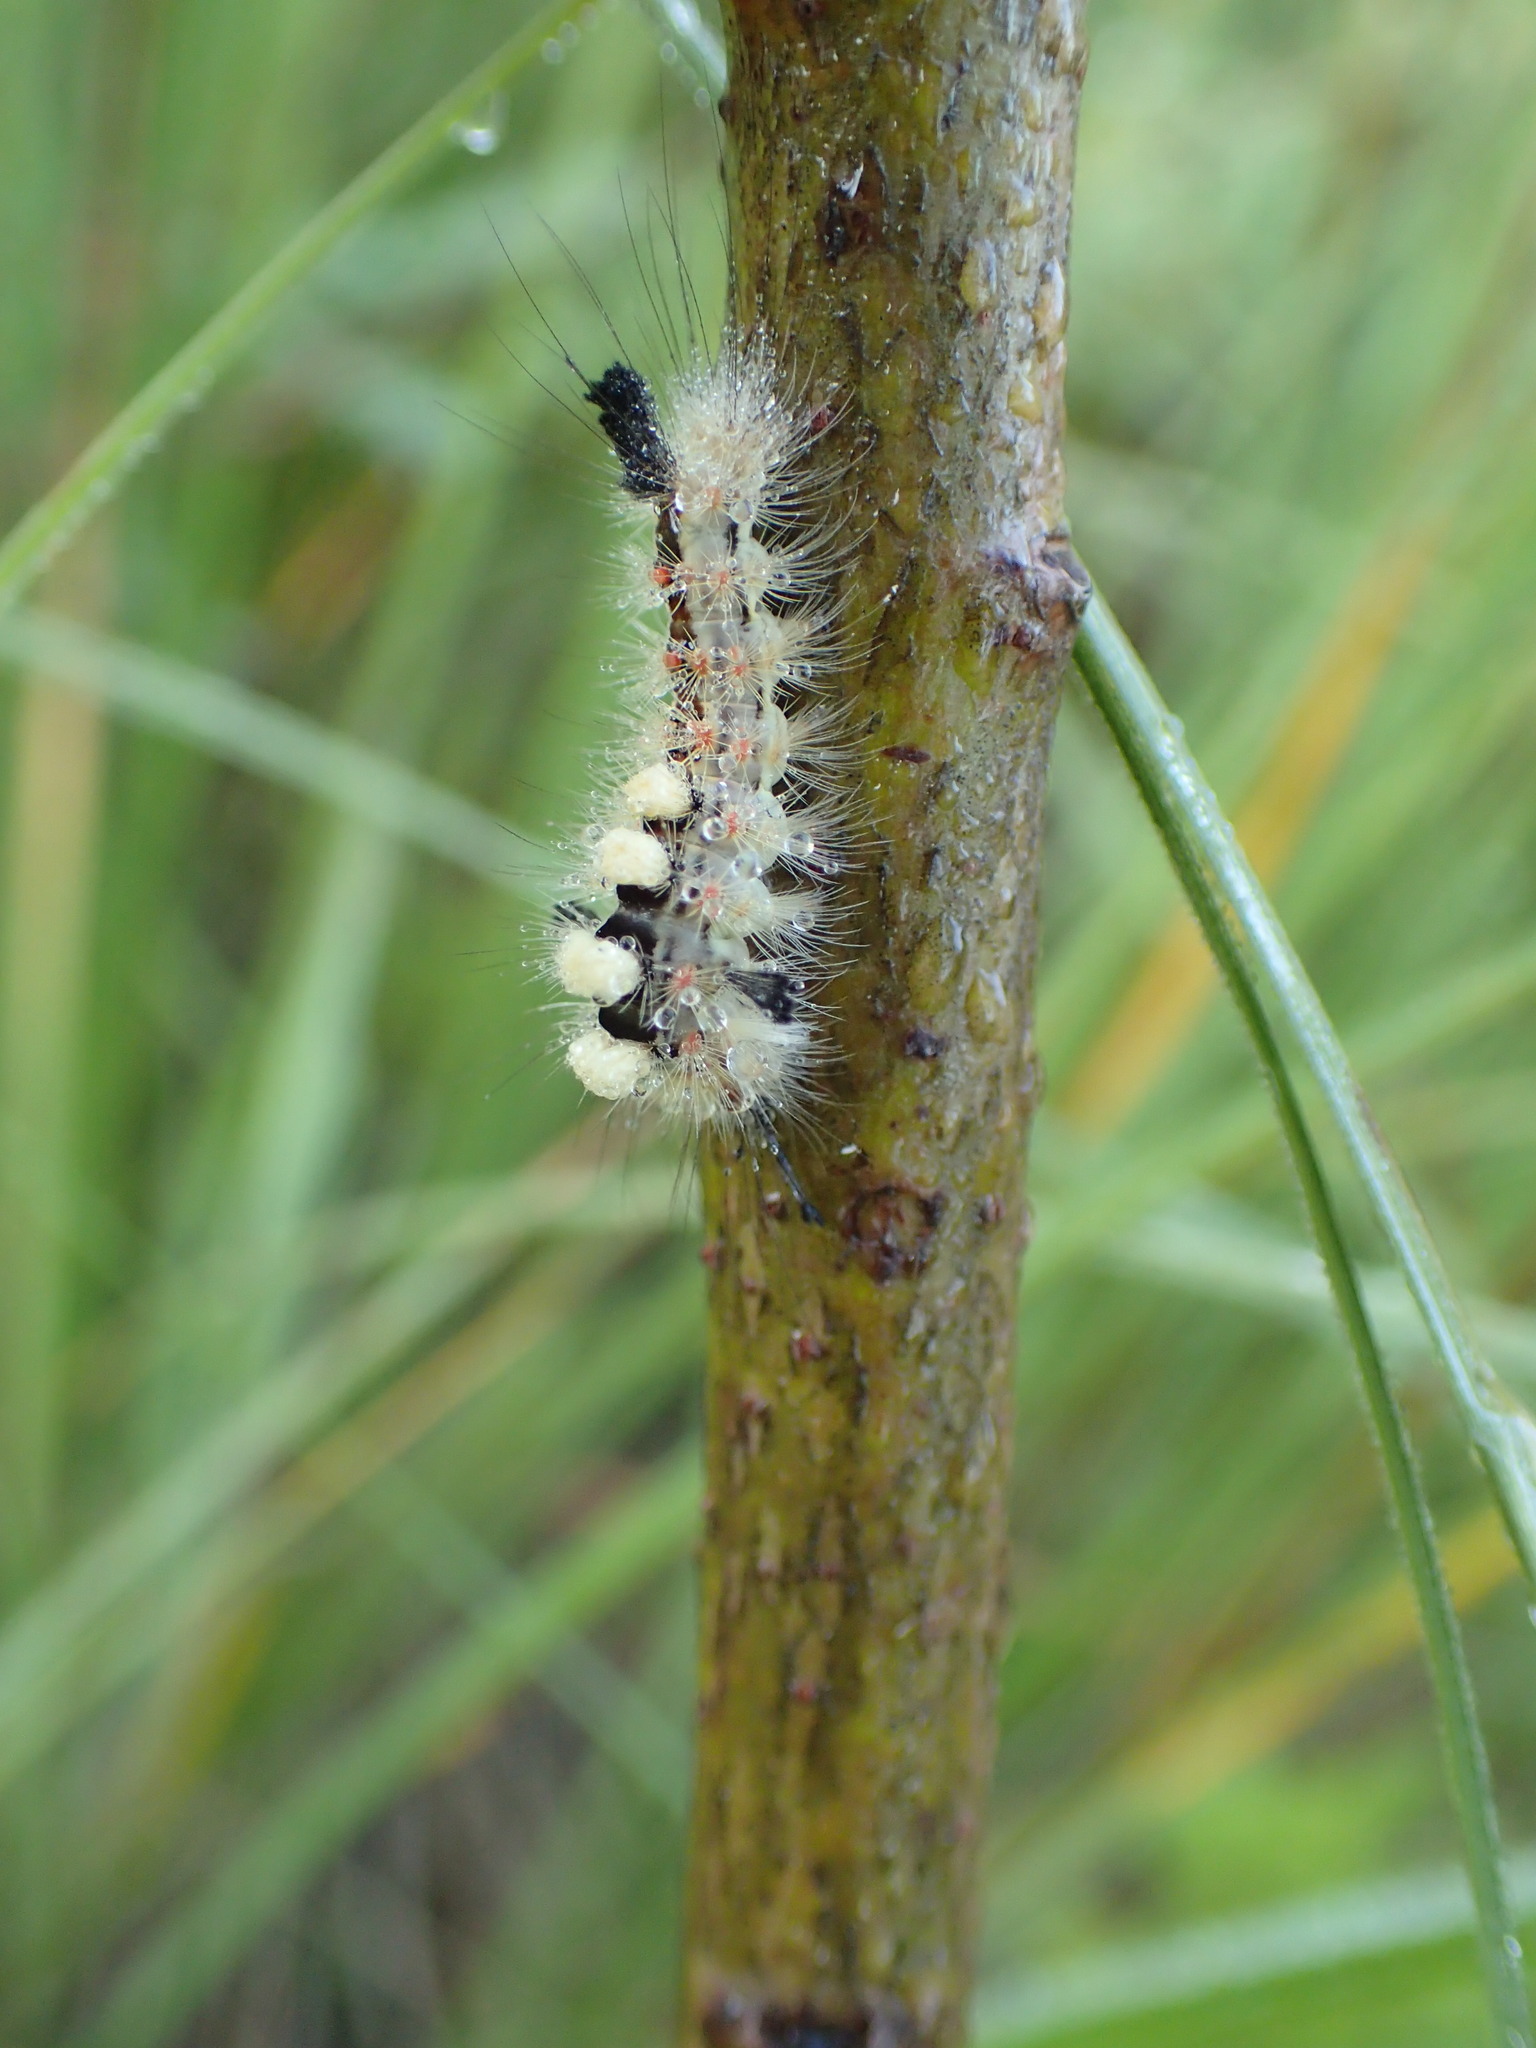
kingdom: Animalia
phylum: Arthropoda
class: Insecta
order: Lepidoptera
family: Erebidae
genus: Orgyia
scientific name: Orgyia antiqua
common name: Vapourer
